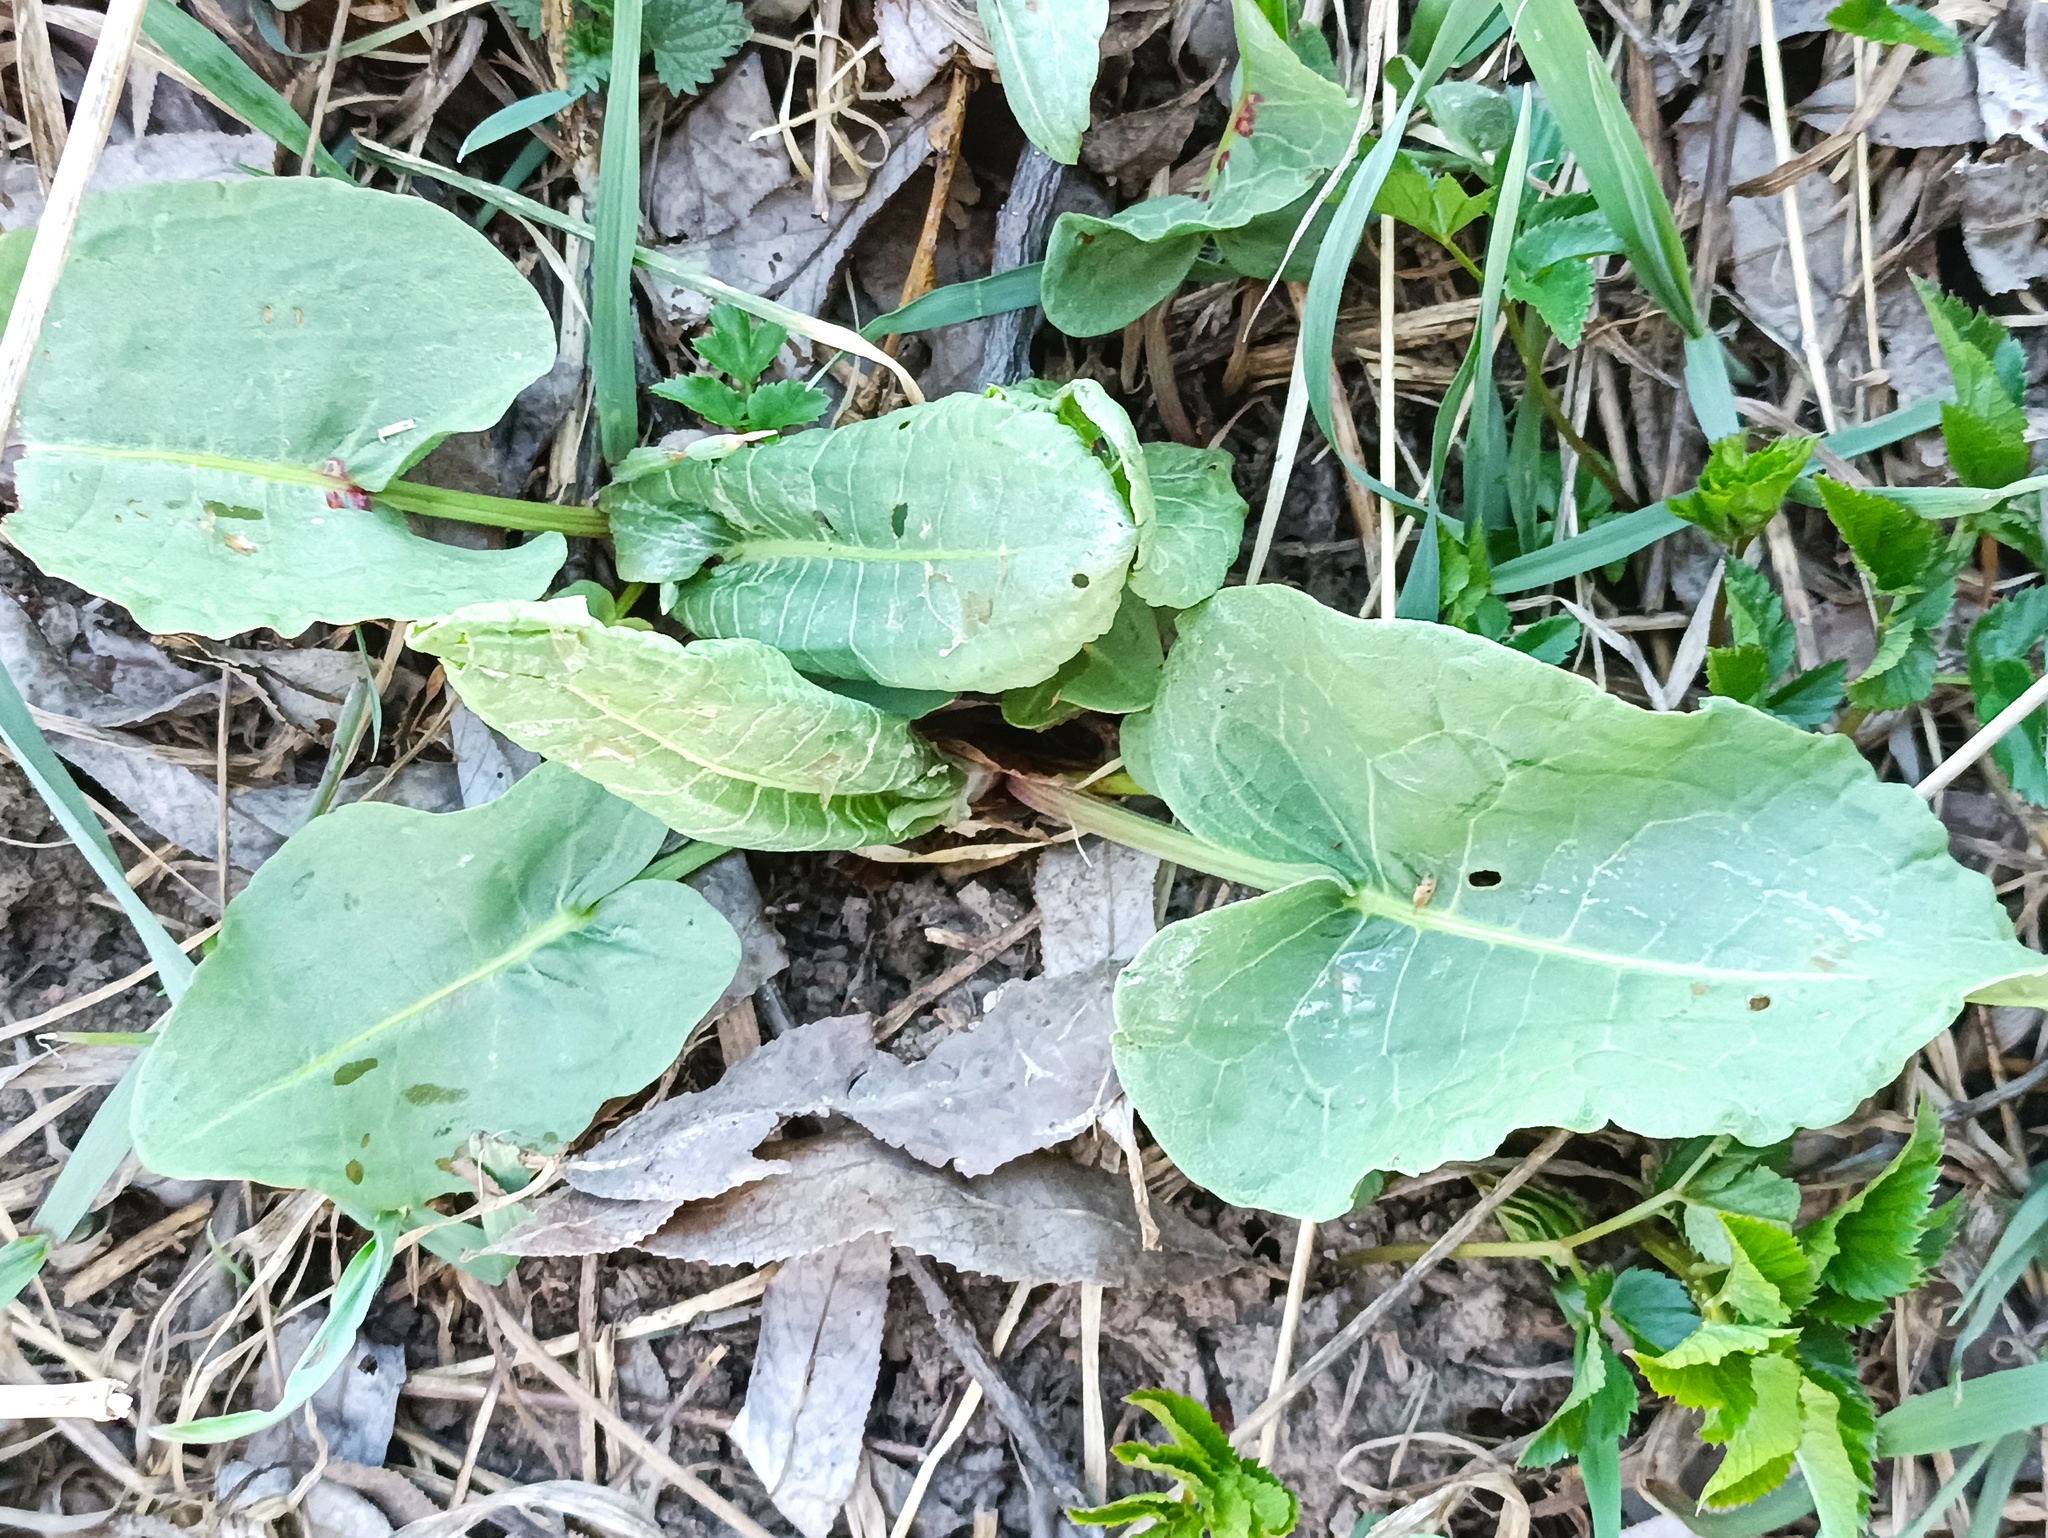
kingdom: Plantae
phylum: Tracheophyta
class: Magnoliopsida
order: Caryophyllales
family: Polygonaceae
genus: Rumex
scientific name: Rumex confertus
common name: Russian dock
